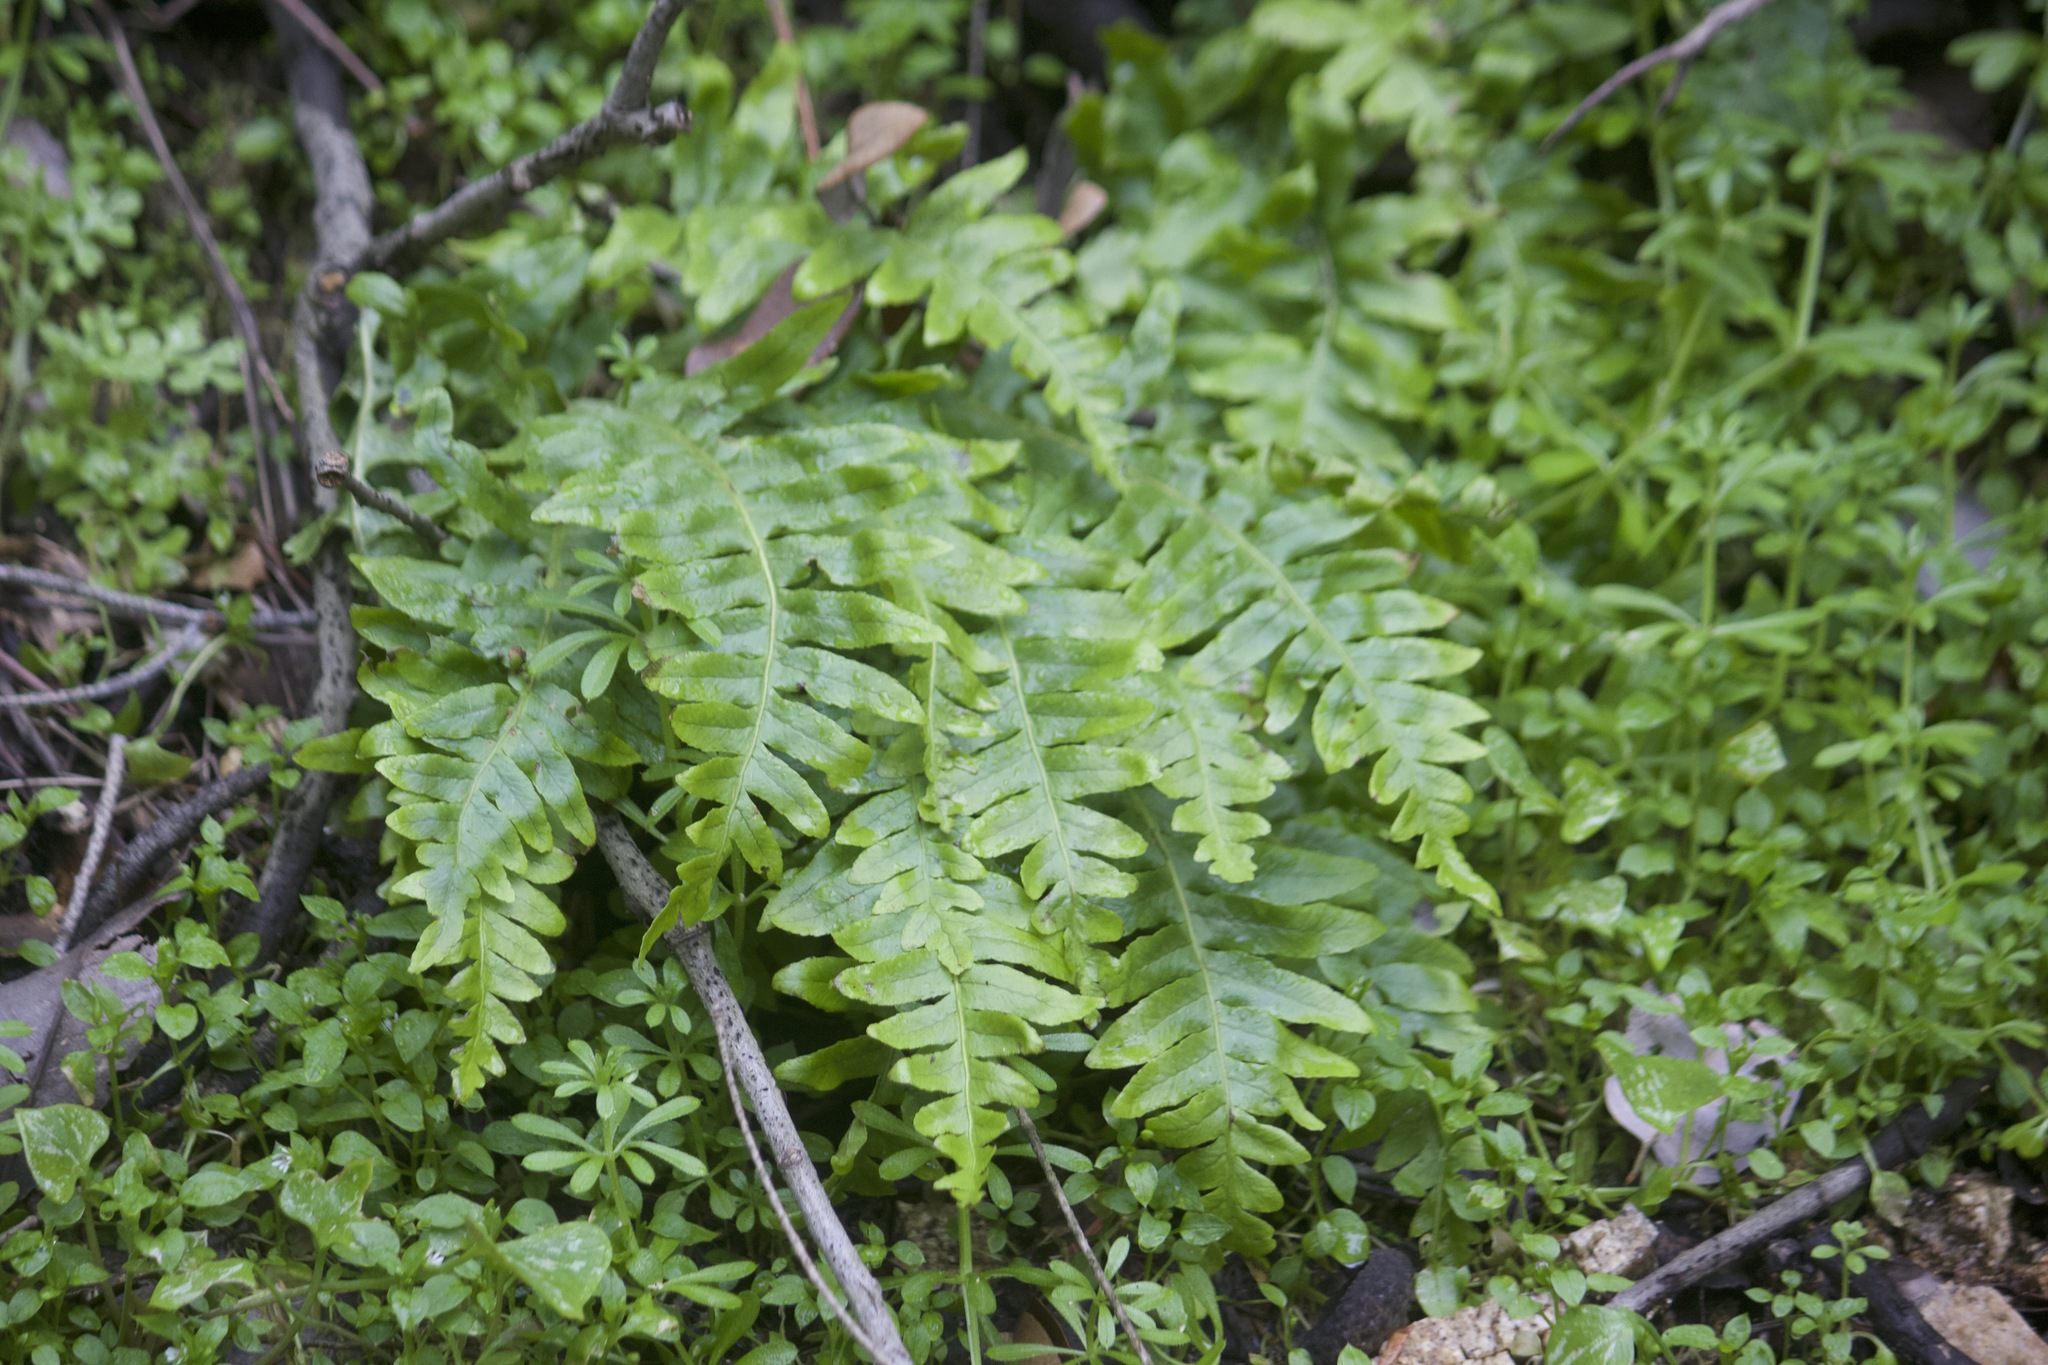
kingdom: Plantae
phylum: Tracheophyta
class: Polypodiopsida
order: Polypodiales
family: Polypodiaceae
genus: Polypodium
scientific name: Polypodium californicum
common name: California polypody
